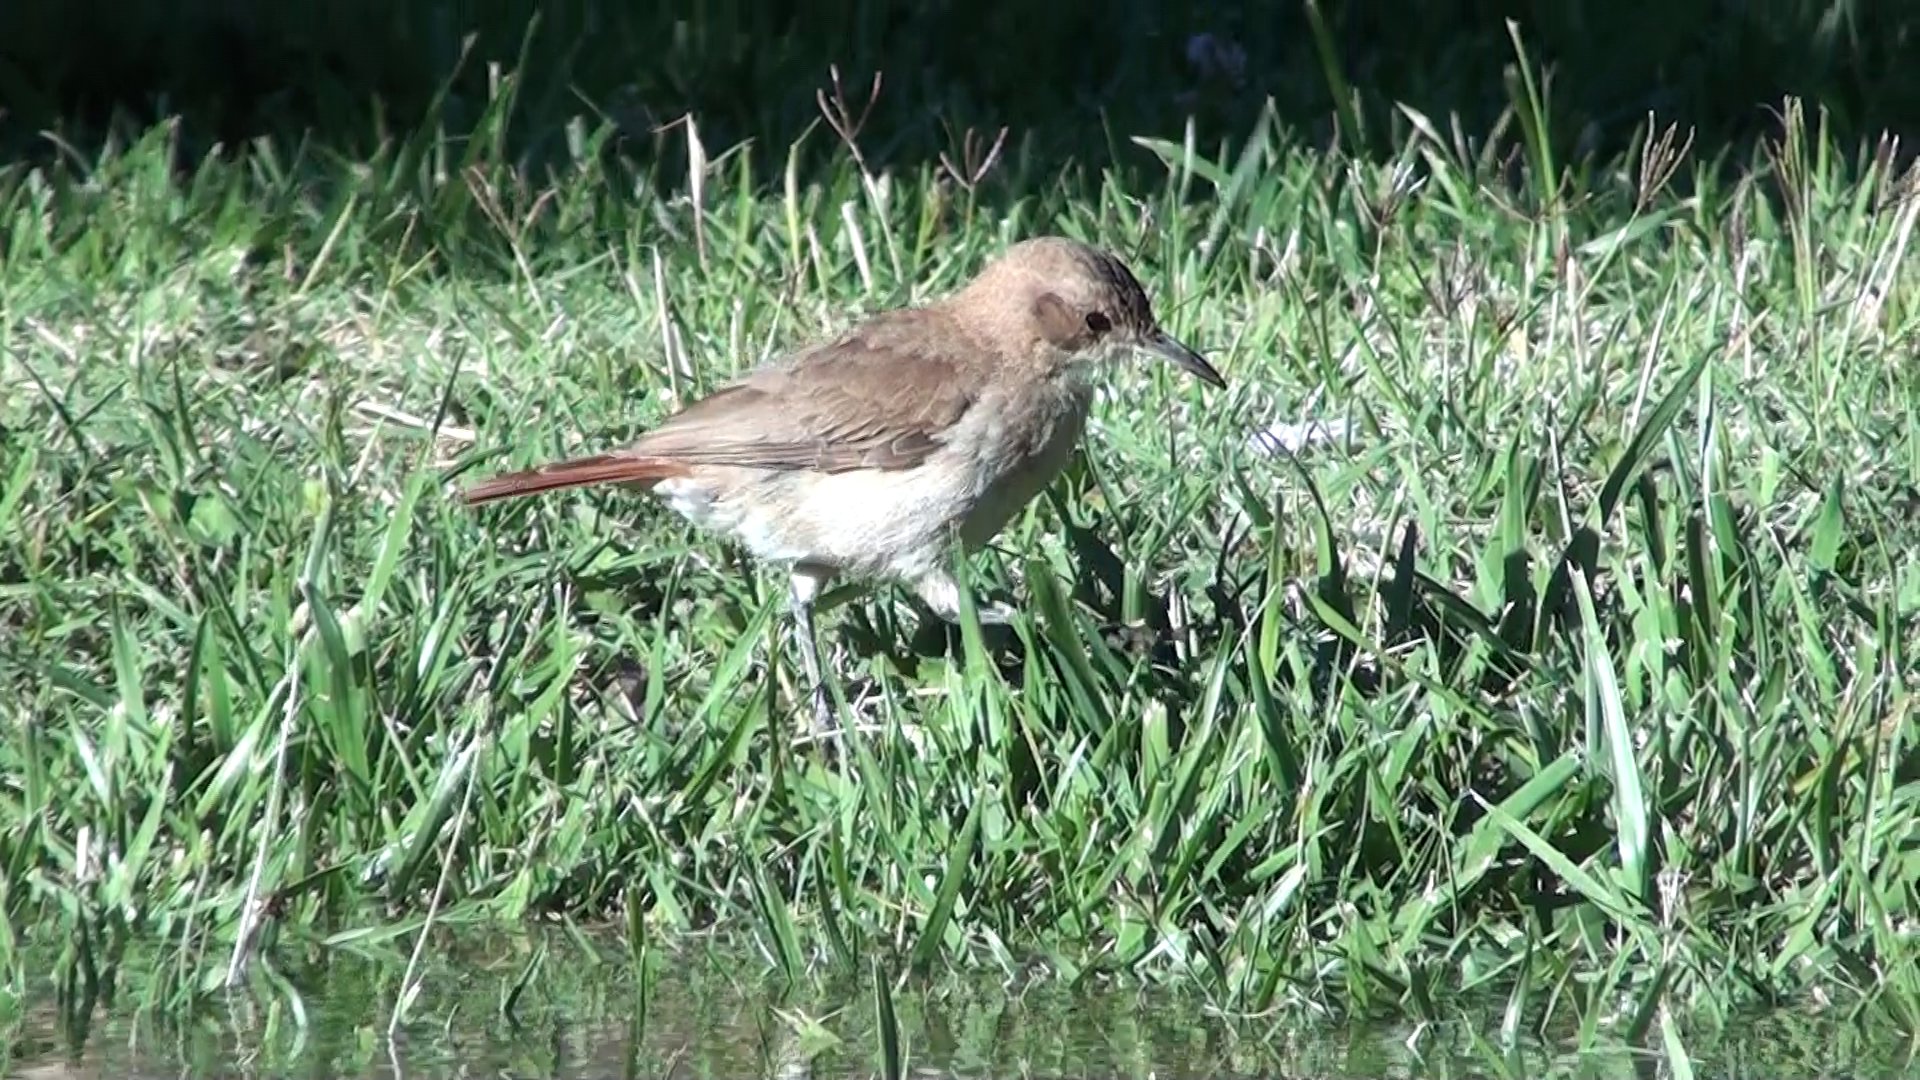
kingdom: Animalia
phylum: Chordata
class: Aves
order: Passeriformes
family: Furnariidae
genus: Furnarius
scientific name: Furnarius rufus
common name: Rufous hornero
